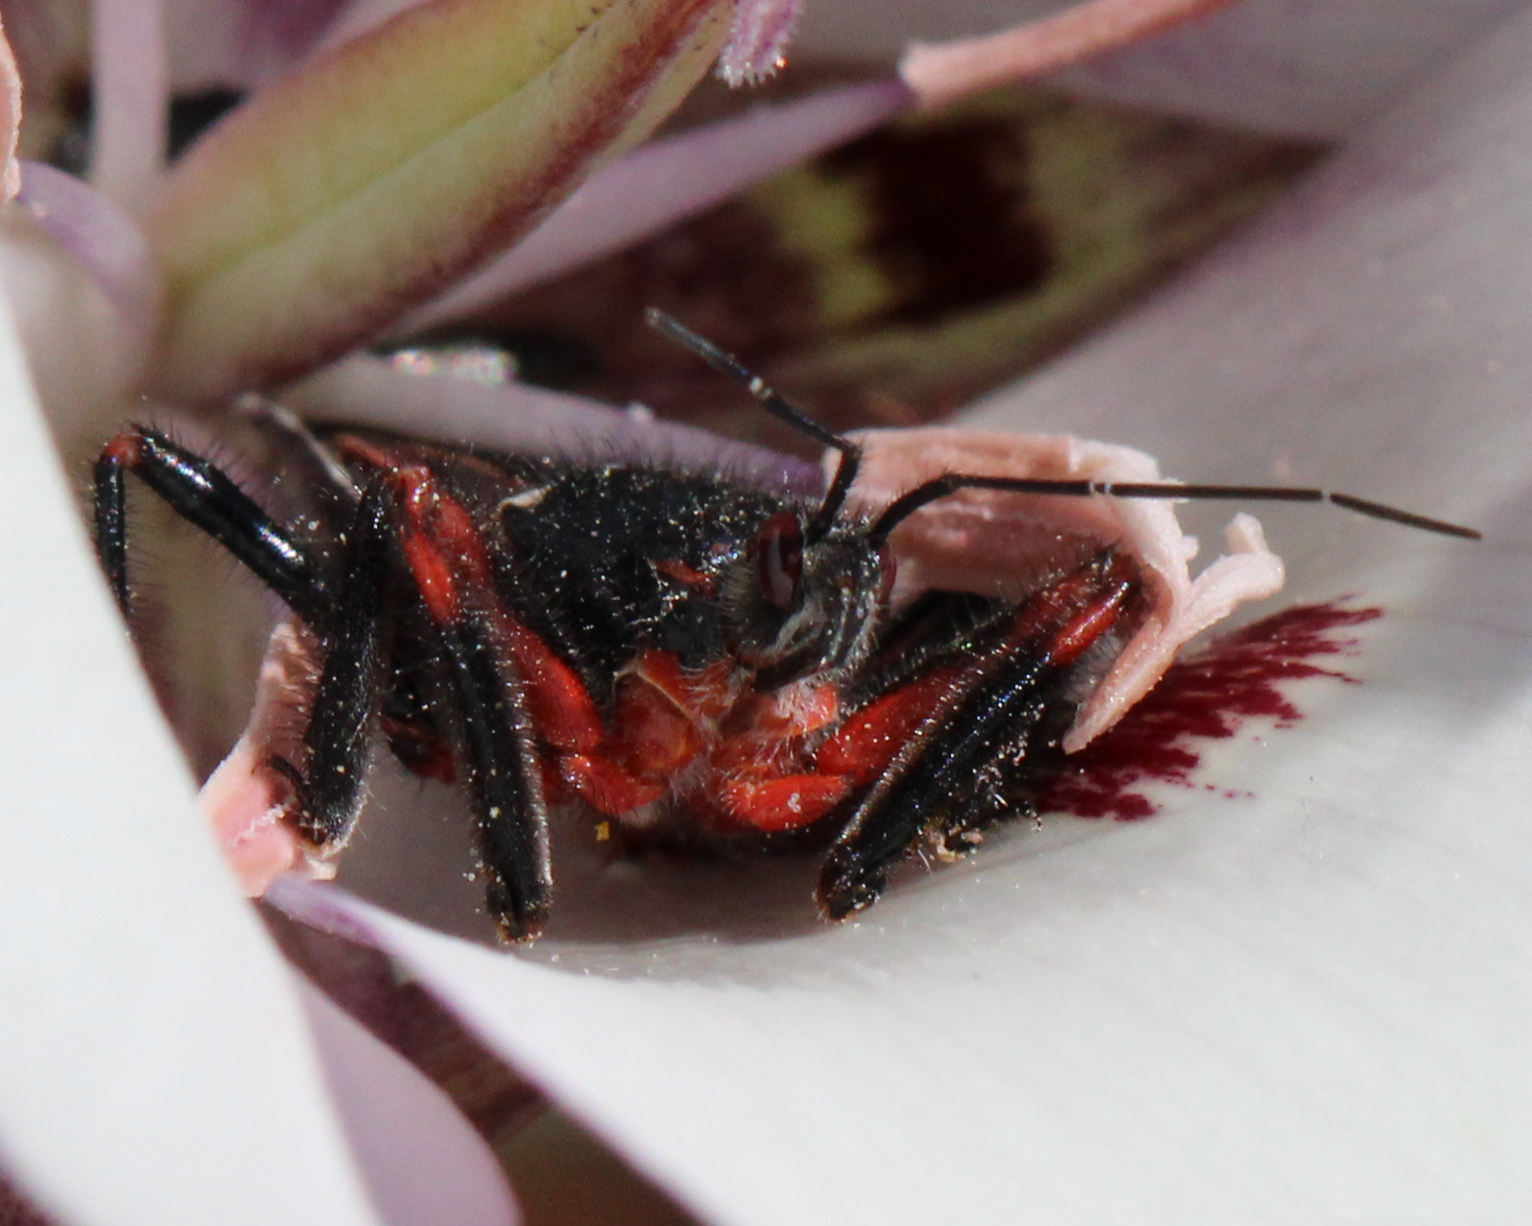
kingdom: Animalia
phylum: Arthropoda
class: Insecta
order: Hemiptera
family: Reduviidae
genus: Apiomerus
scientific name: Apiomerus californicus
